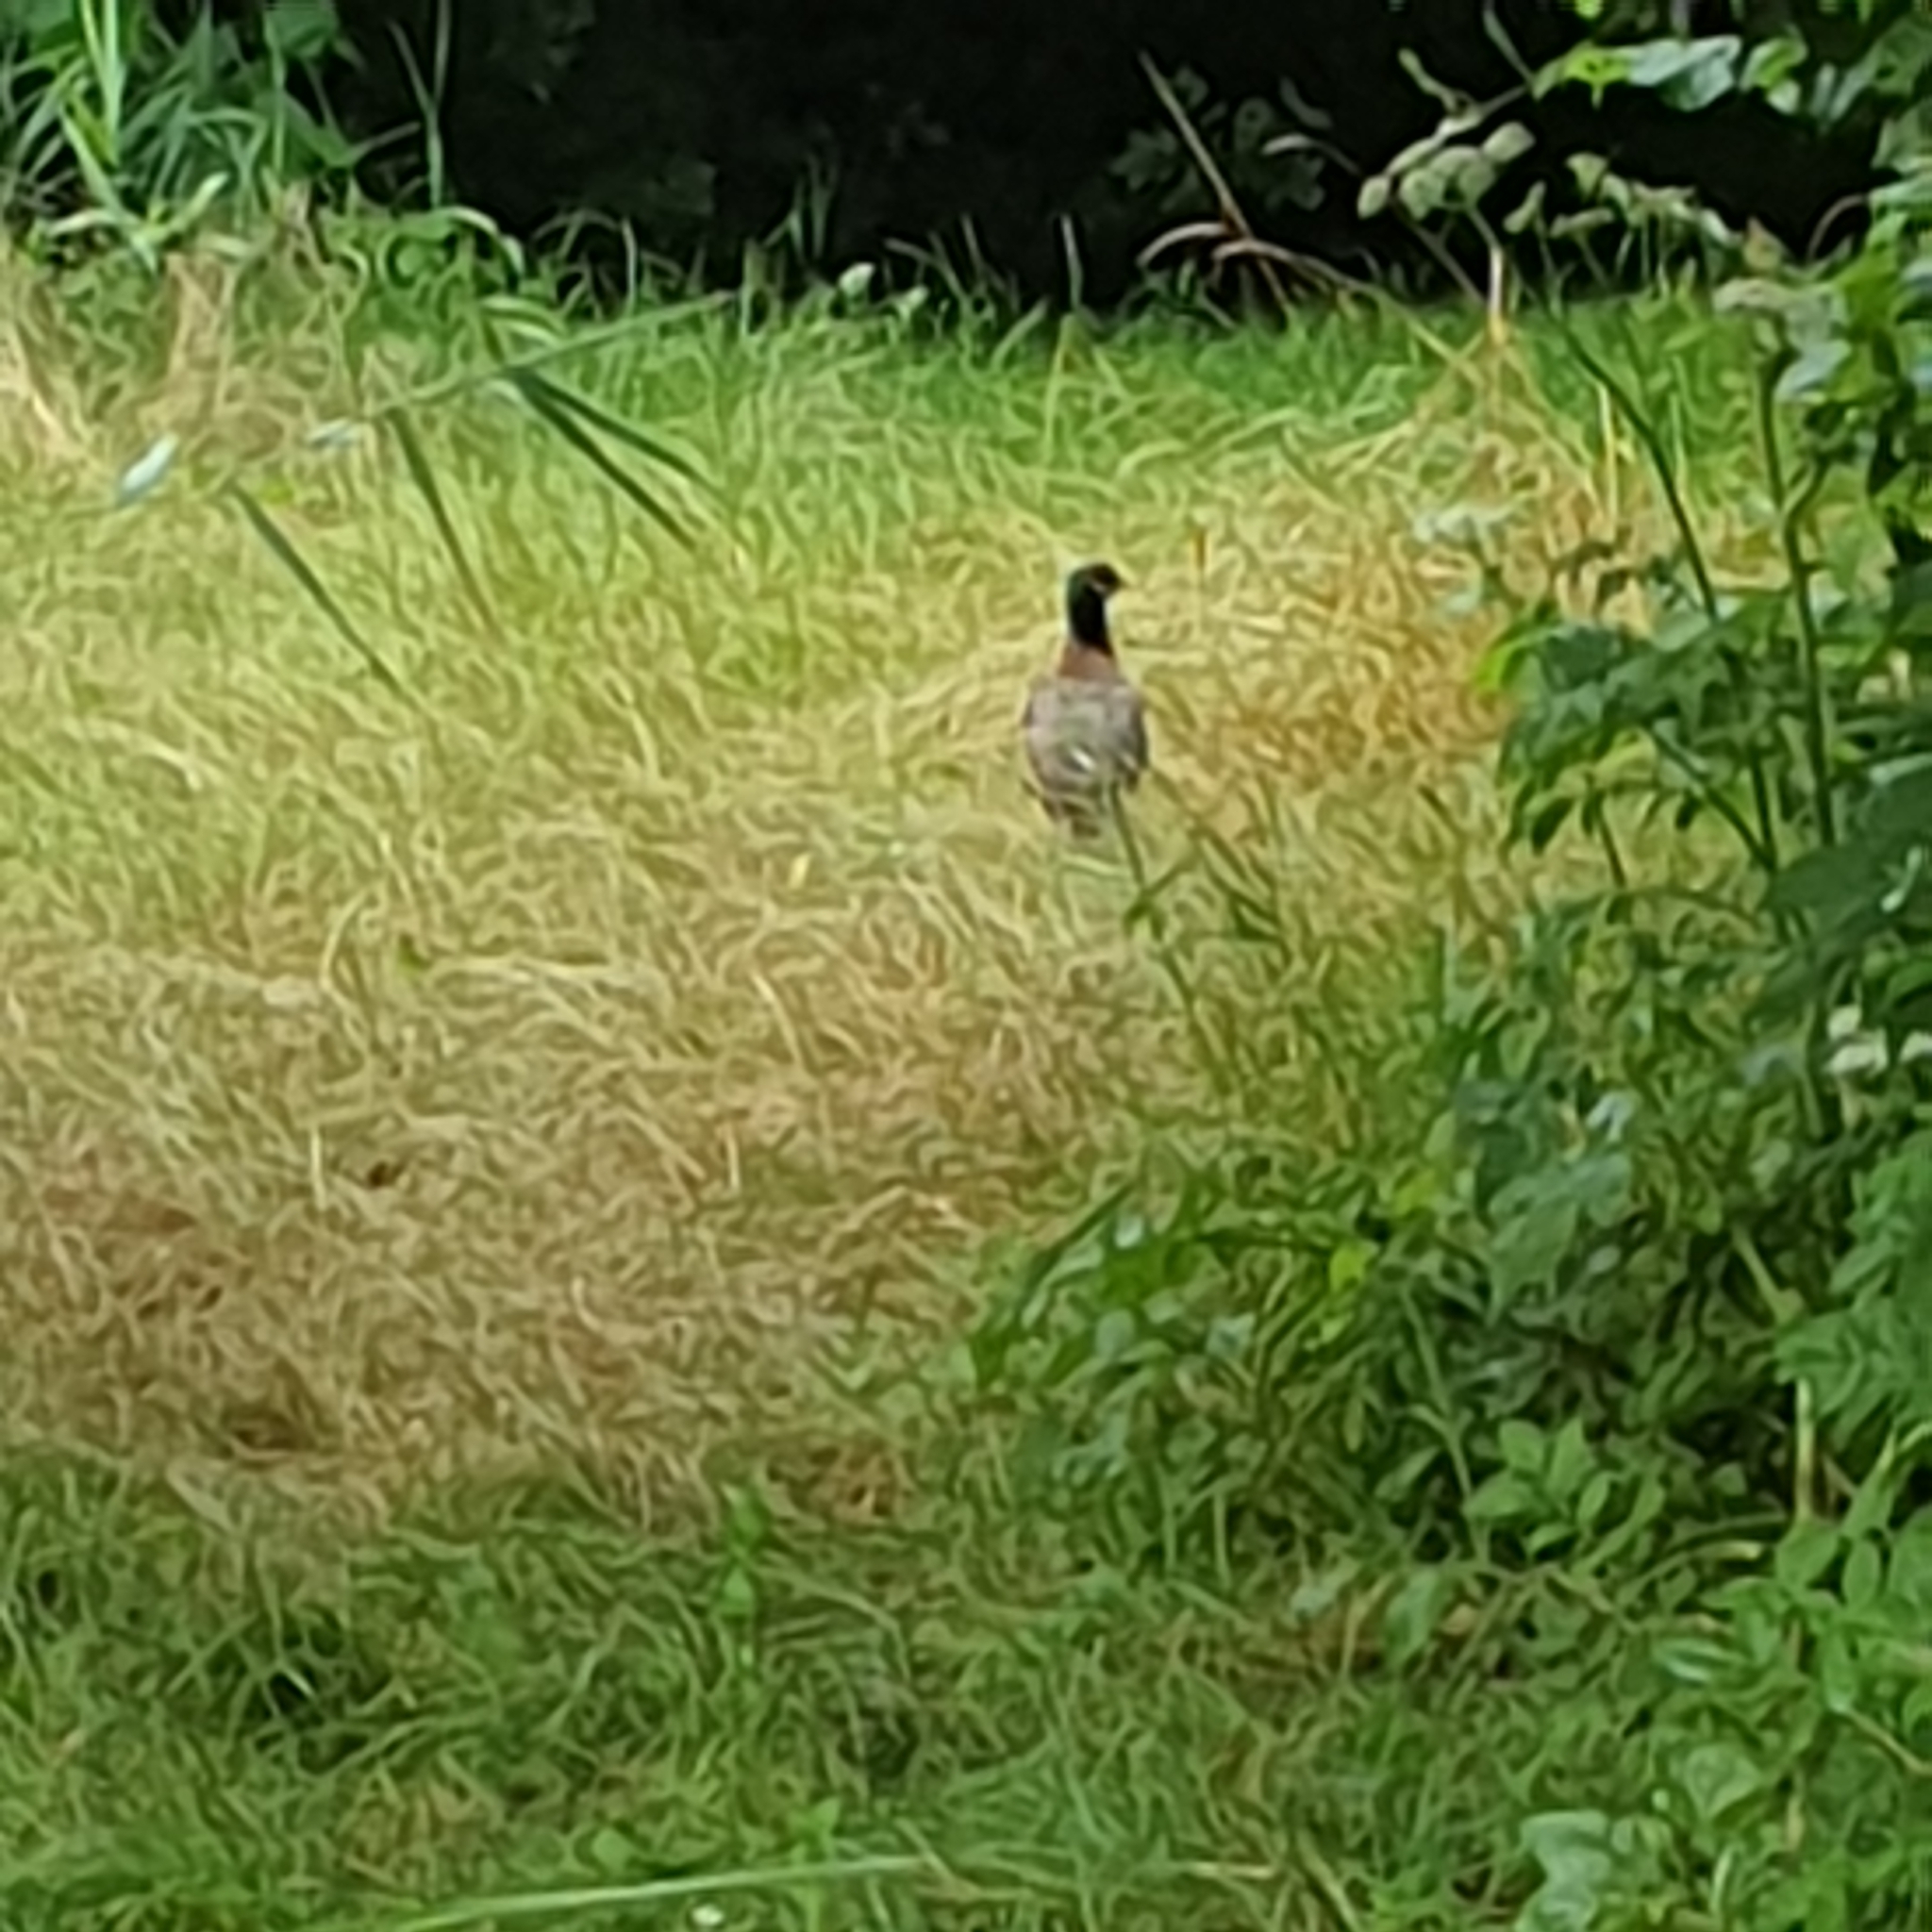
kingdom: Animalia
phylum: Chordata
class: Aves
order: Galliformes
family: Phasianidae
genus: Phasianus
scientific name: Phasianus colchicus
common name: Common pheasant
